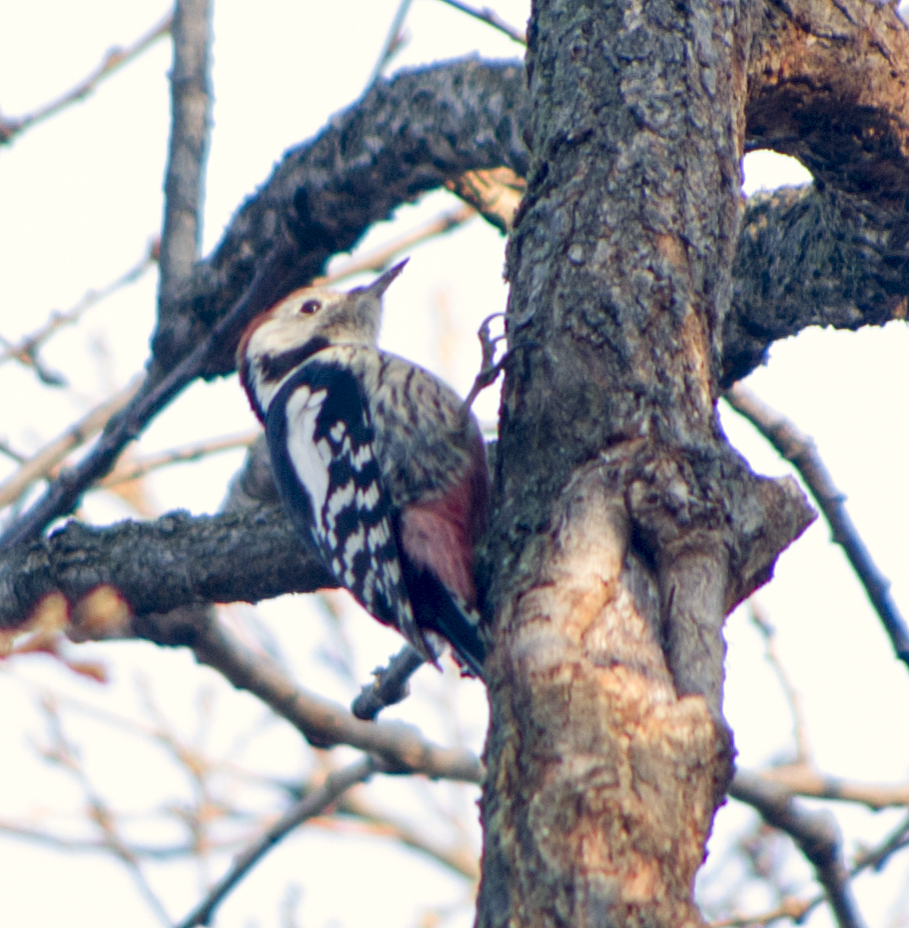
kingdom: Animalia
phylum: Chordata
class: Aves
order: Piciformes
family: Picidae
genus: Dendrocoptes
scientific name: Dendrocoptes medius
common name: Middle spotted woodpecker
